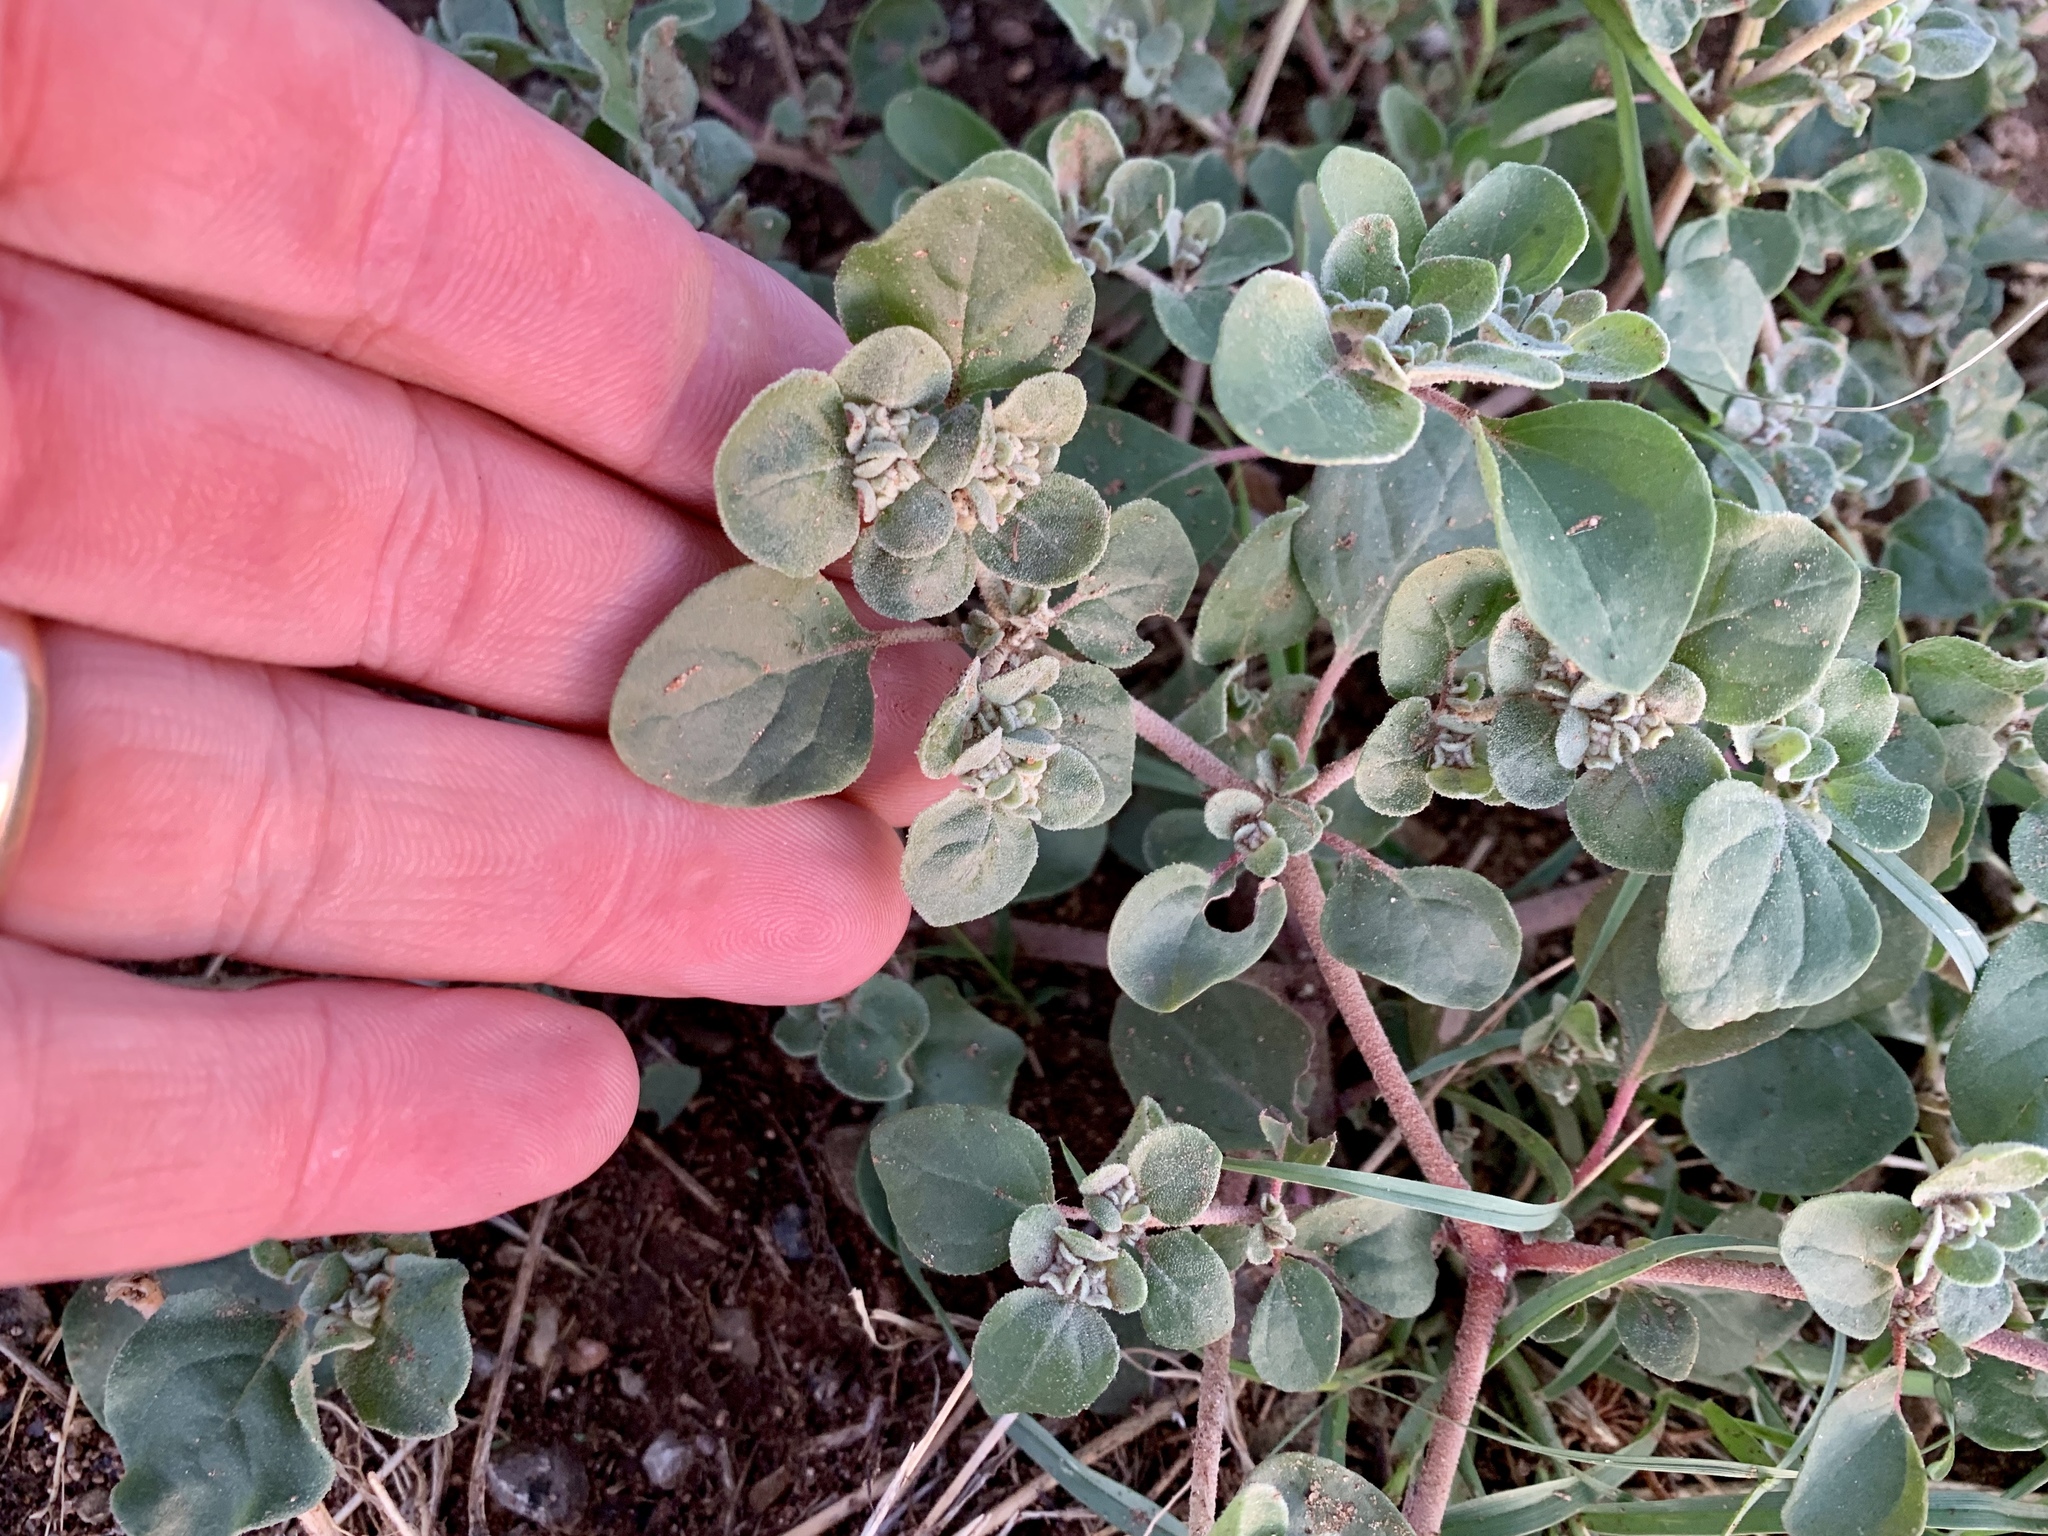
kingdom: Plantae
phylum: Tracheophyta
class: Magnoliopsida
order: Caryophyllales
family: Amaranthaceae
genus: Tidestromia
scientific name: Tidestromia lanuginosa
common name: Woolly tidestromia
